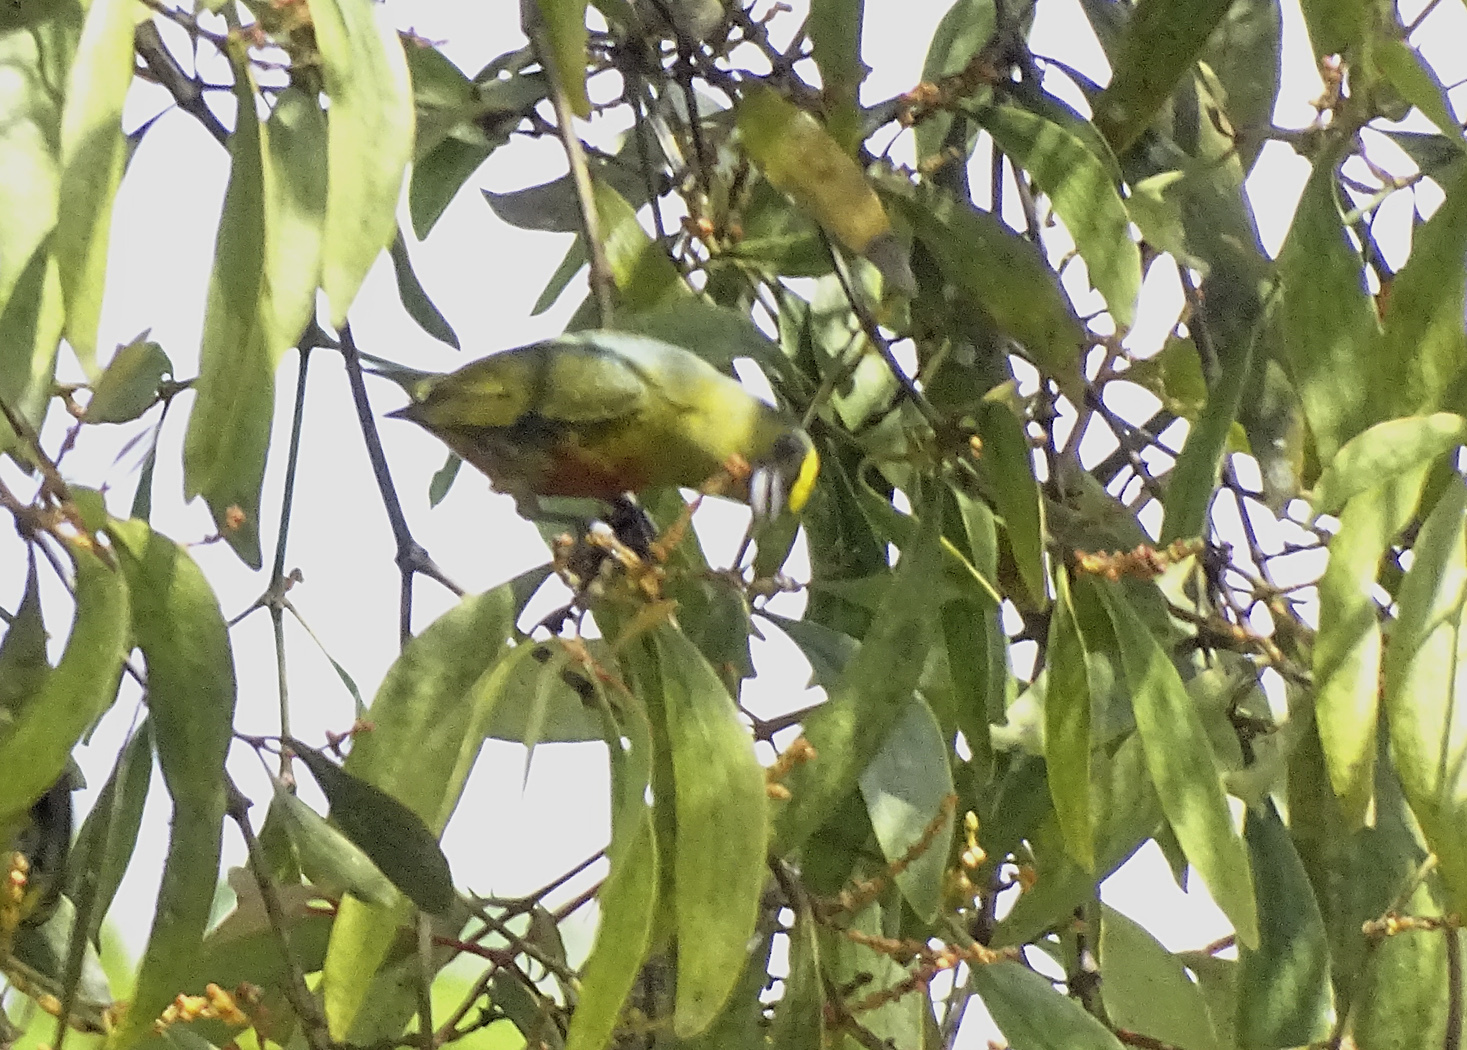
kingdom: Animalia
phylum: Chordata
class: Aves
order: Passeriformes
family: Fringillidae
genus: Euphonia
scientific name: Euphonia gouldi
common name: Olive-backed euphonia
